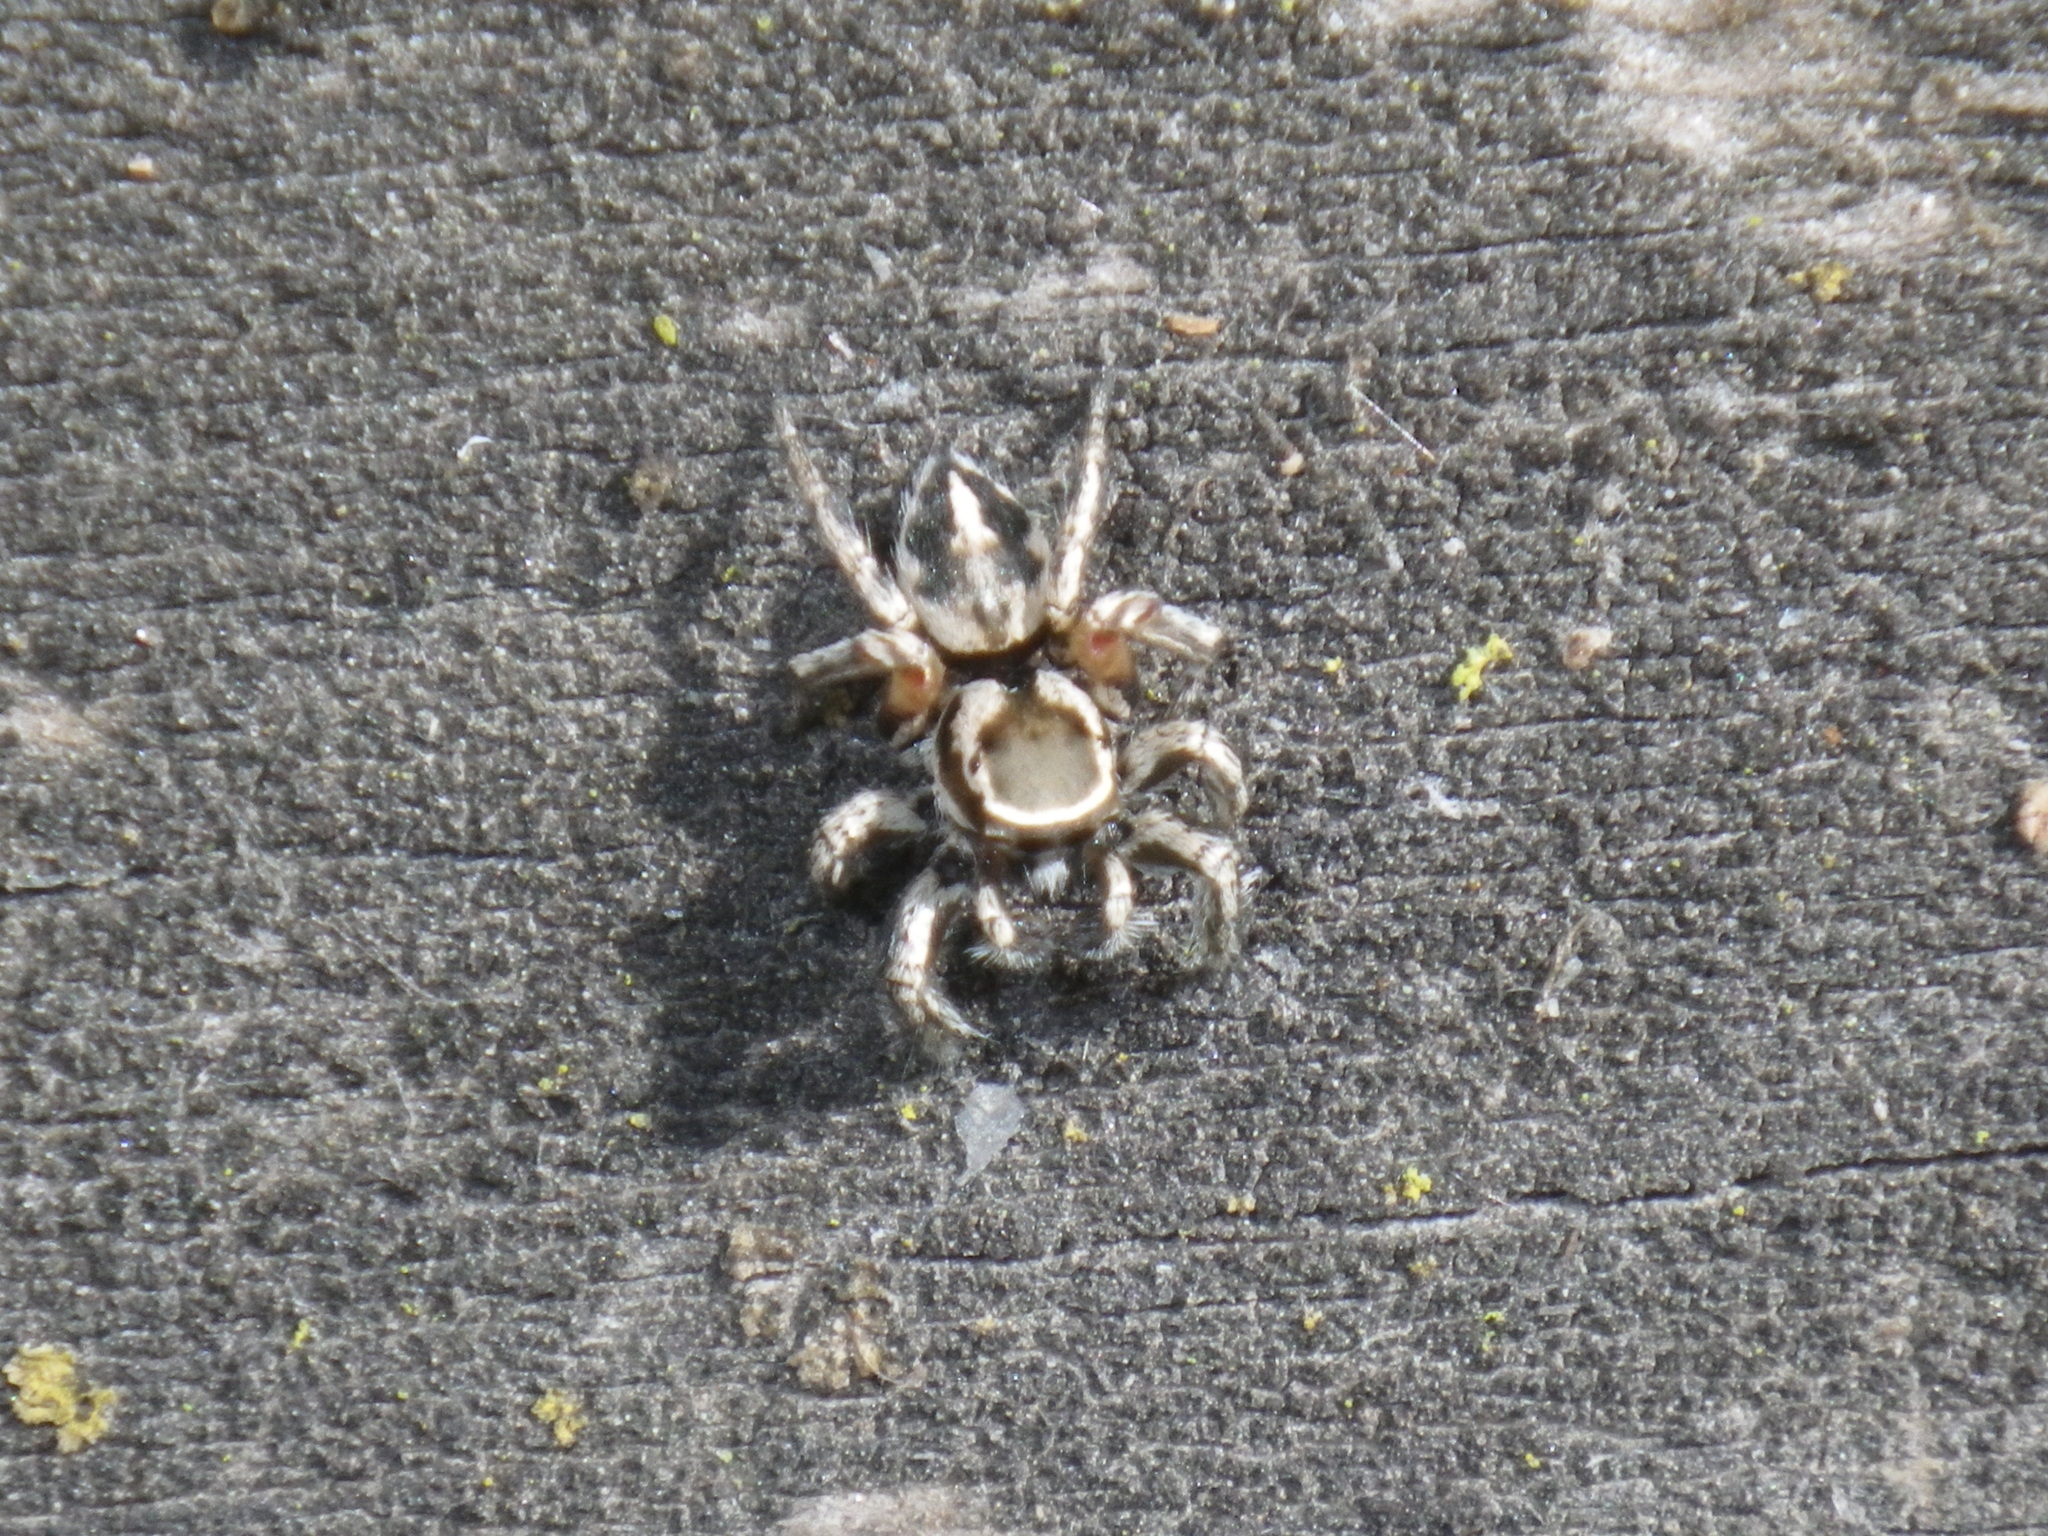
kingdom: Animalia
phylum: Arthropoda
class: Arachnida
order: Araneae
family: Salticidae
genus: Habronattus
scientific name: Habronattus formosus
